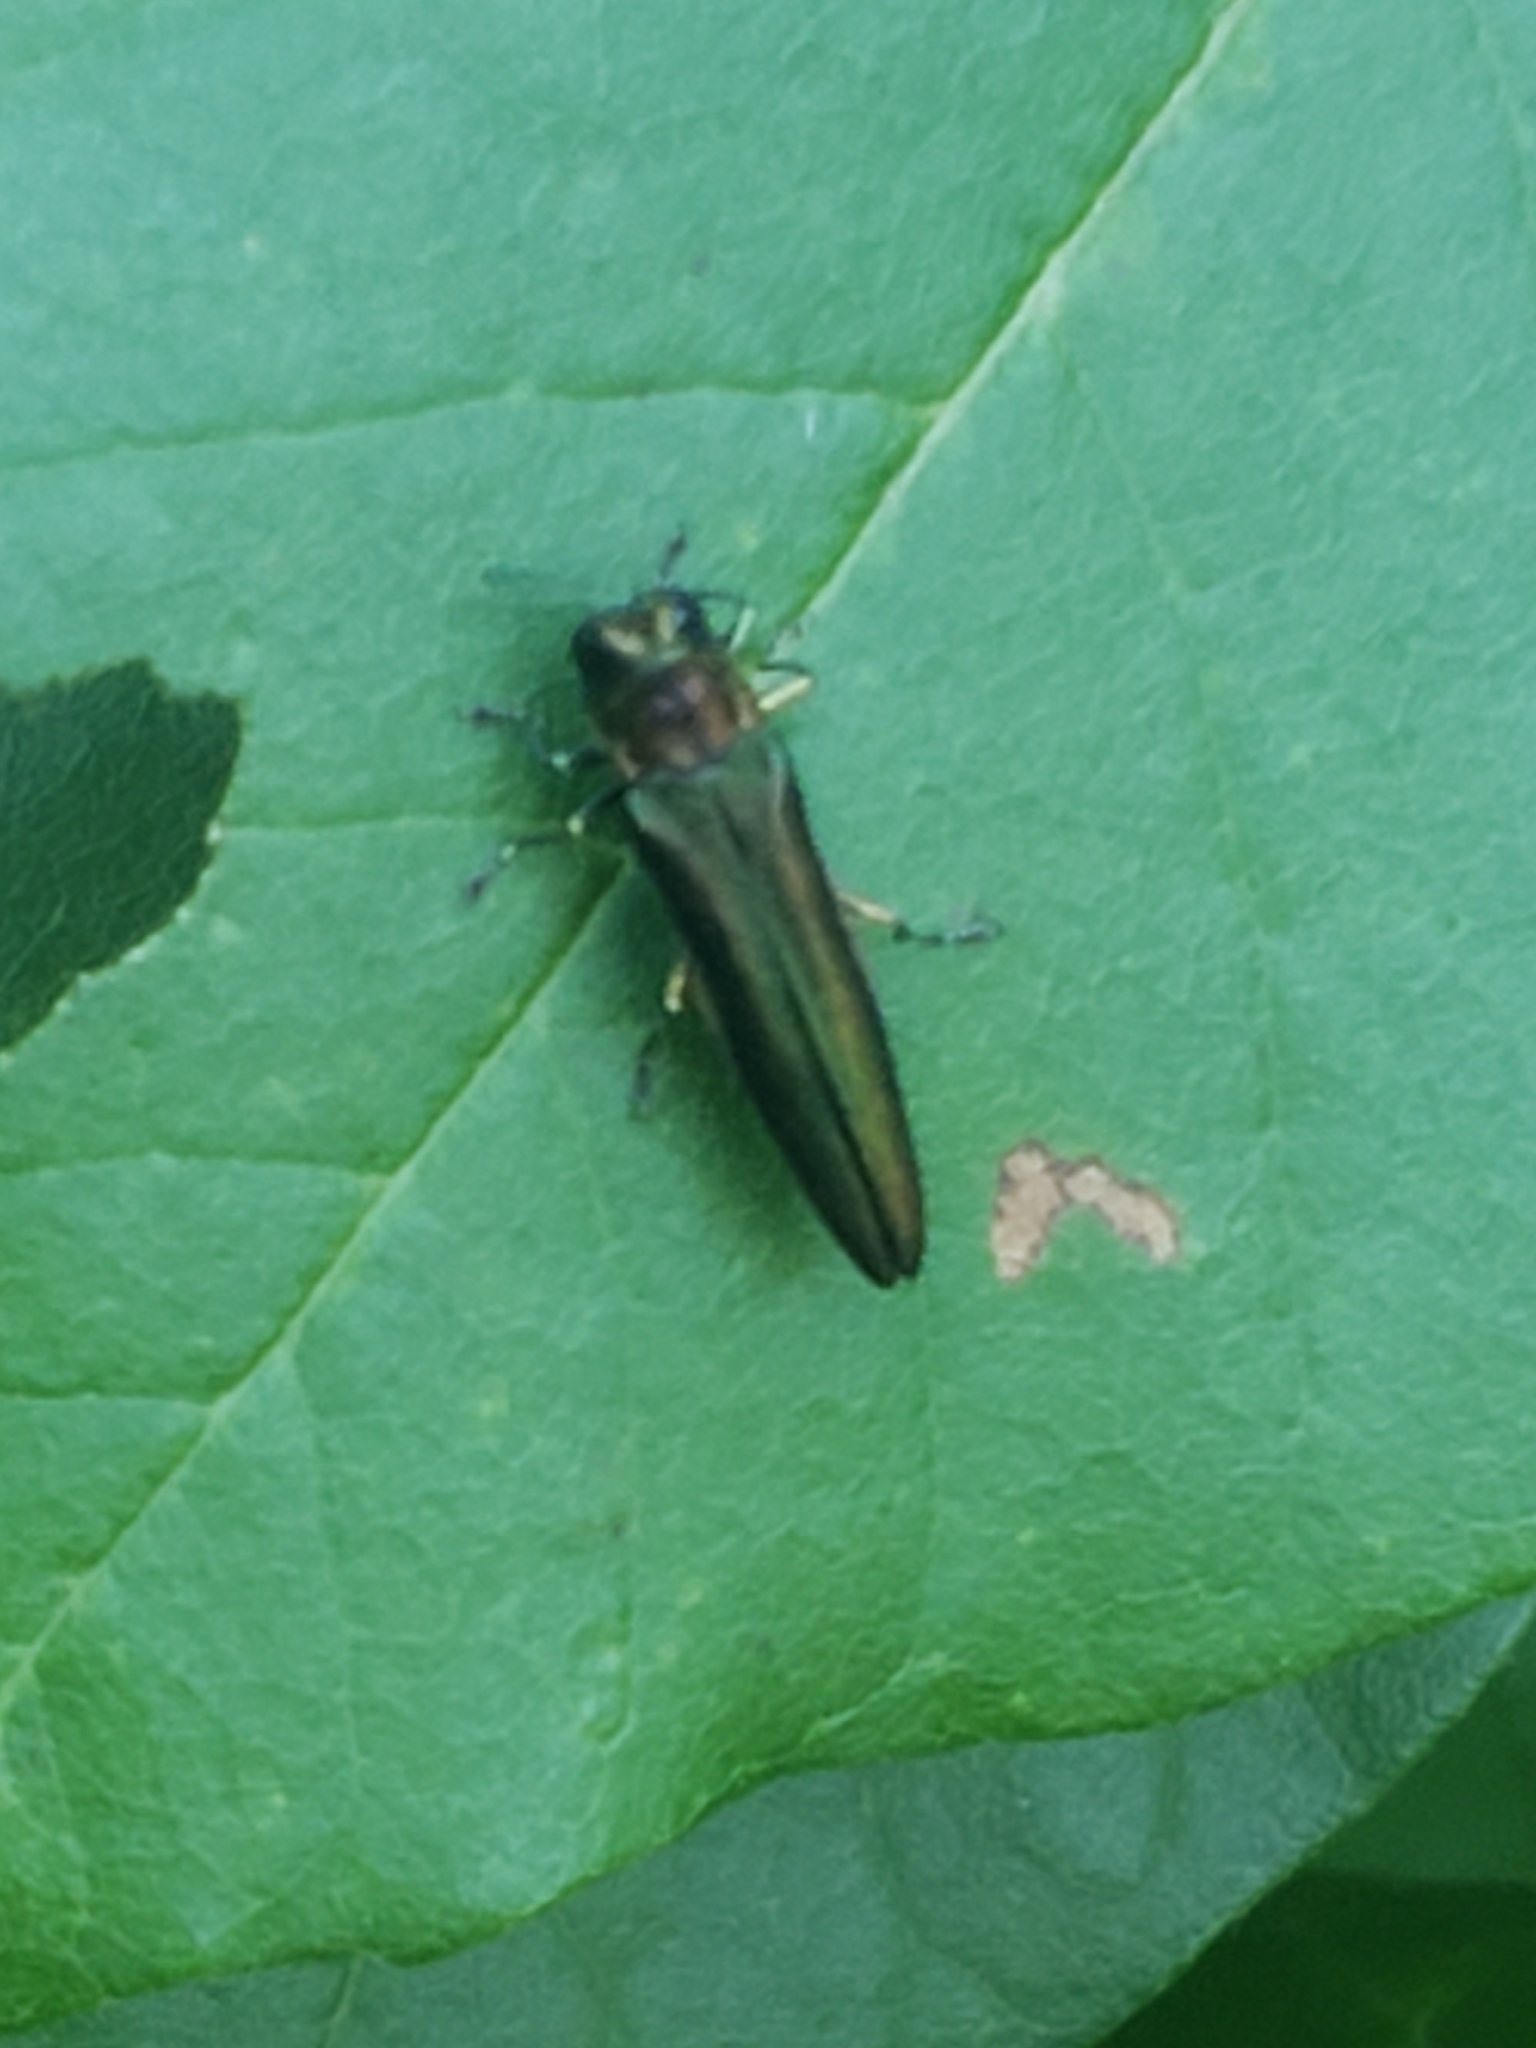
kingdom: Animalia
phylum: Arthropoda
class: Insecta
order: Coleoptera
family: Buprestidae
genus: Agrilus
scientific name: Agrilus planipennis
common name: Emerald ash borer
